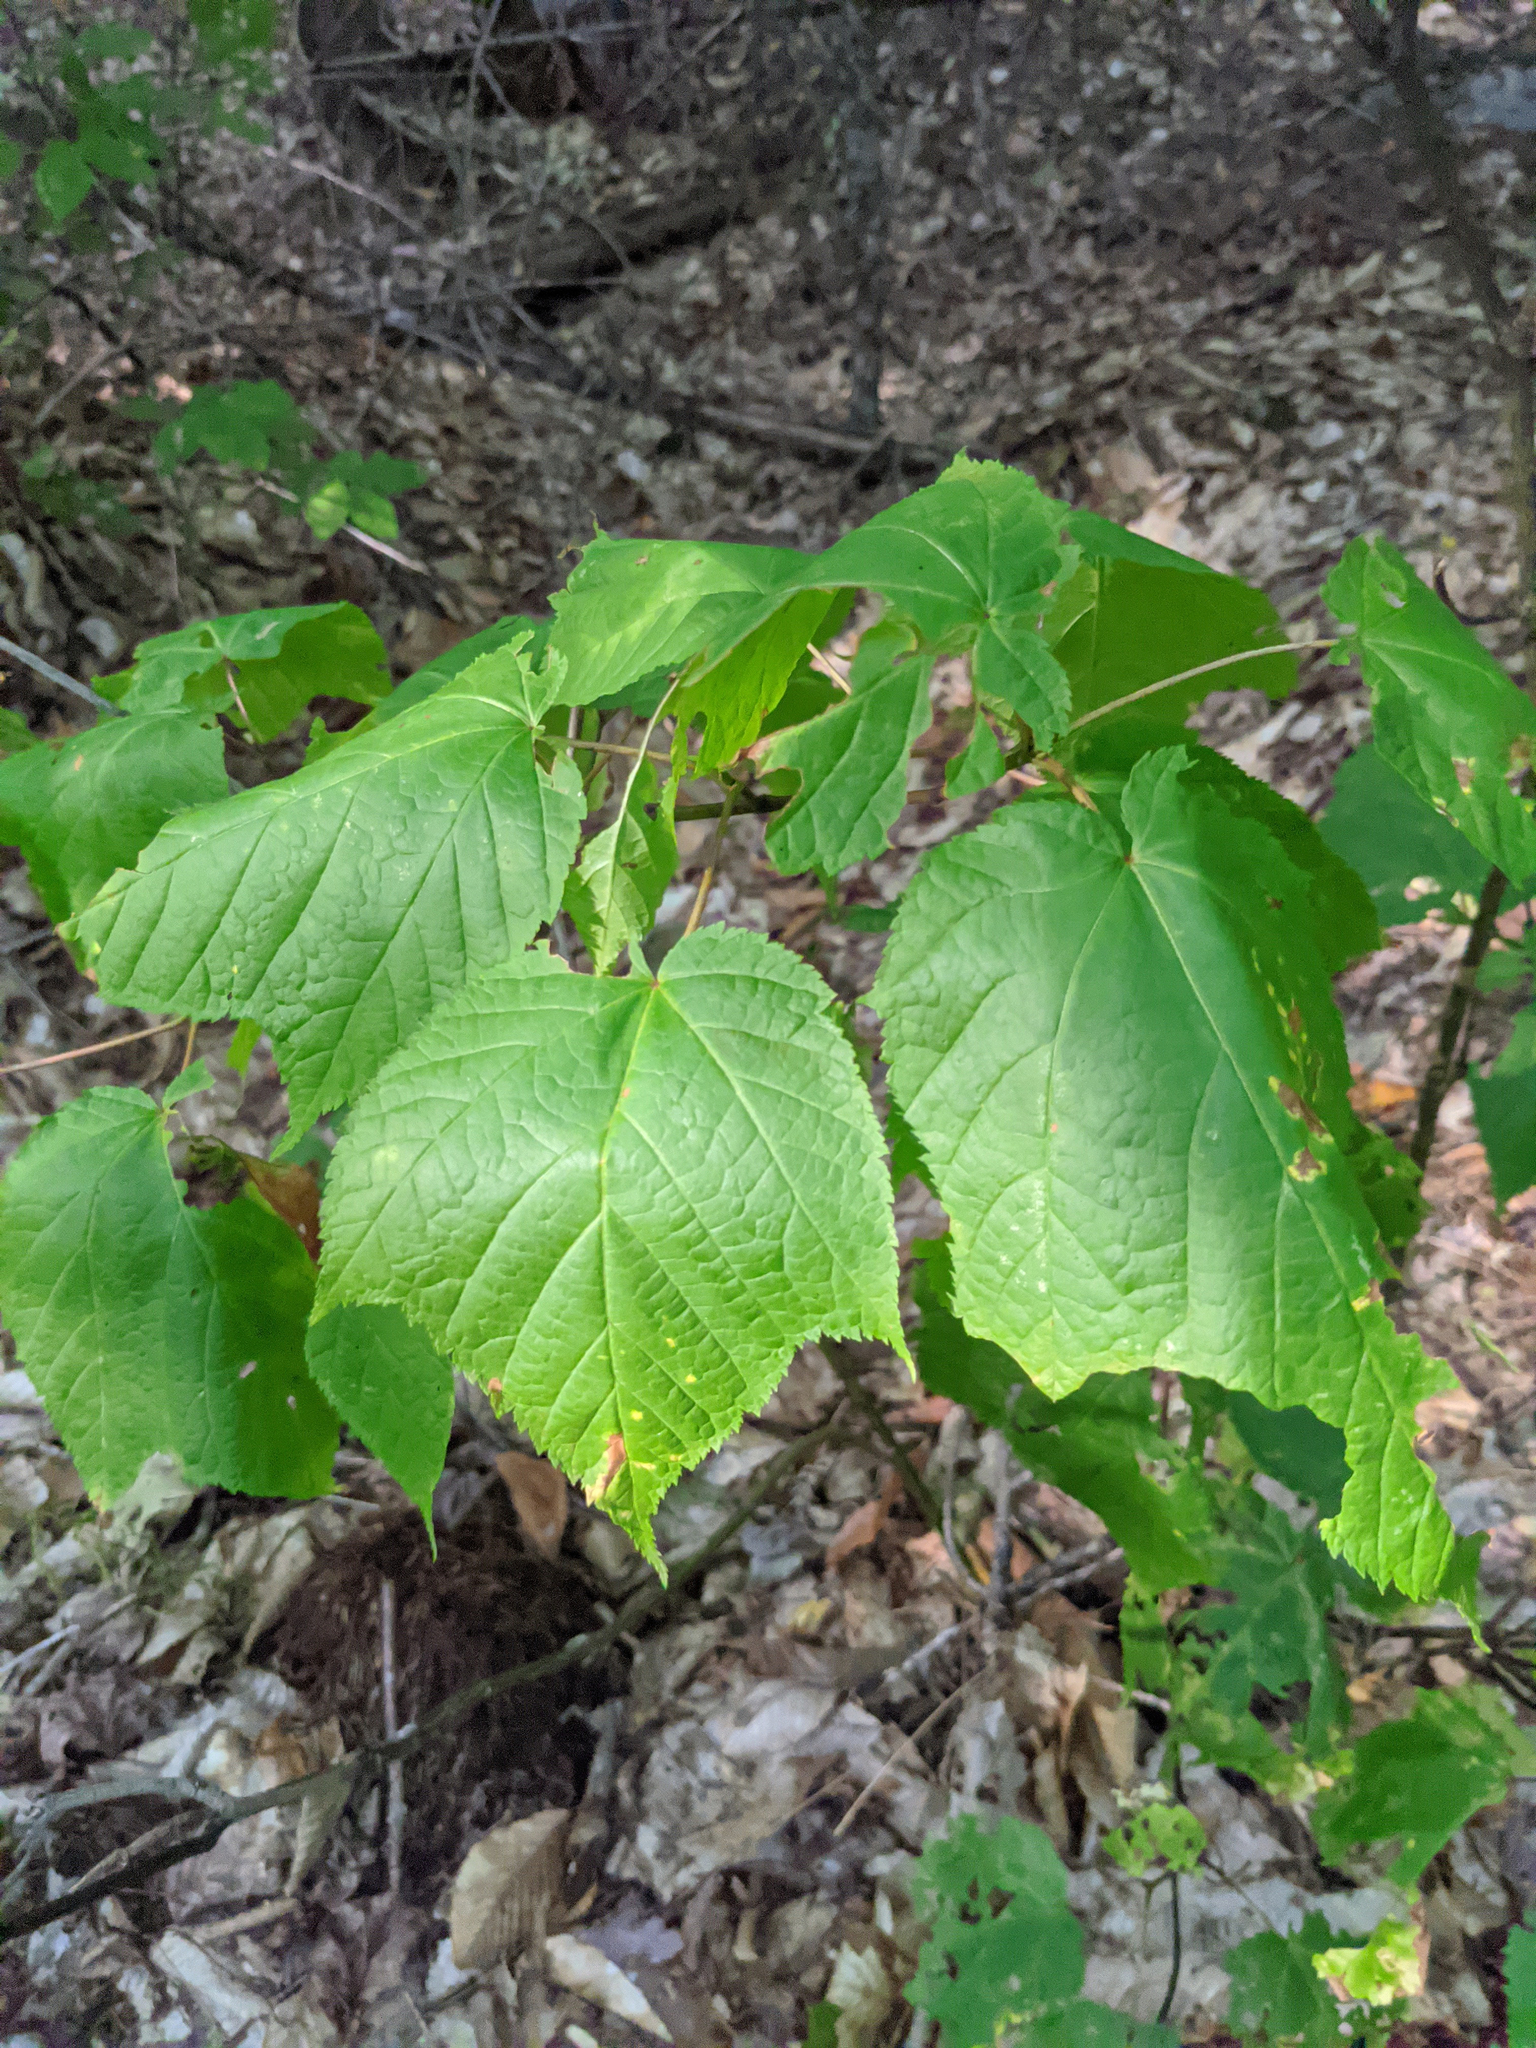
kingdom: Plantae
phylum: Tracheophyta
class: Magnoliopsida
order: Sapindales
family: Sapindaceae
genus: Acer
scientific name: Acer pensylvanicum
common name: Moosewood
